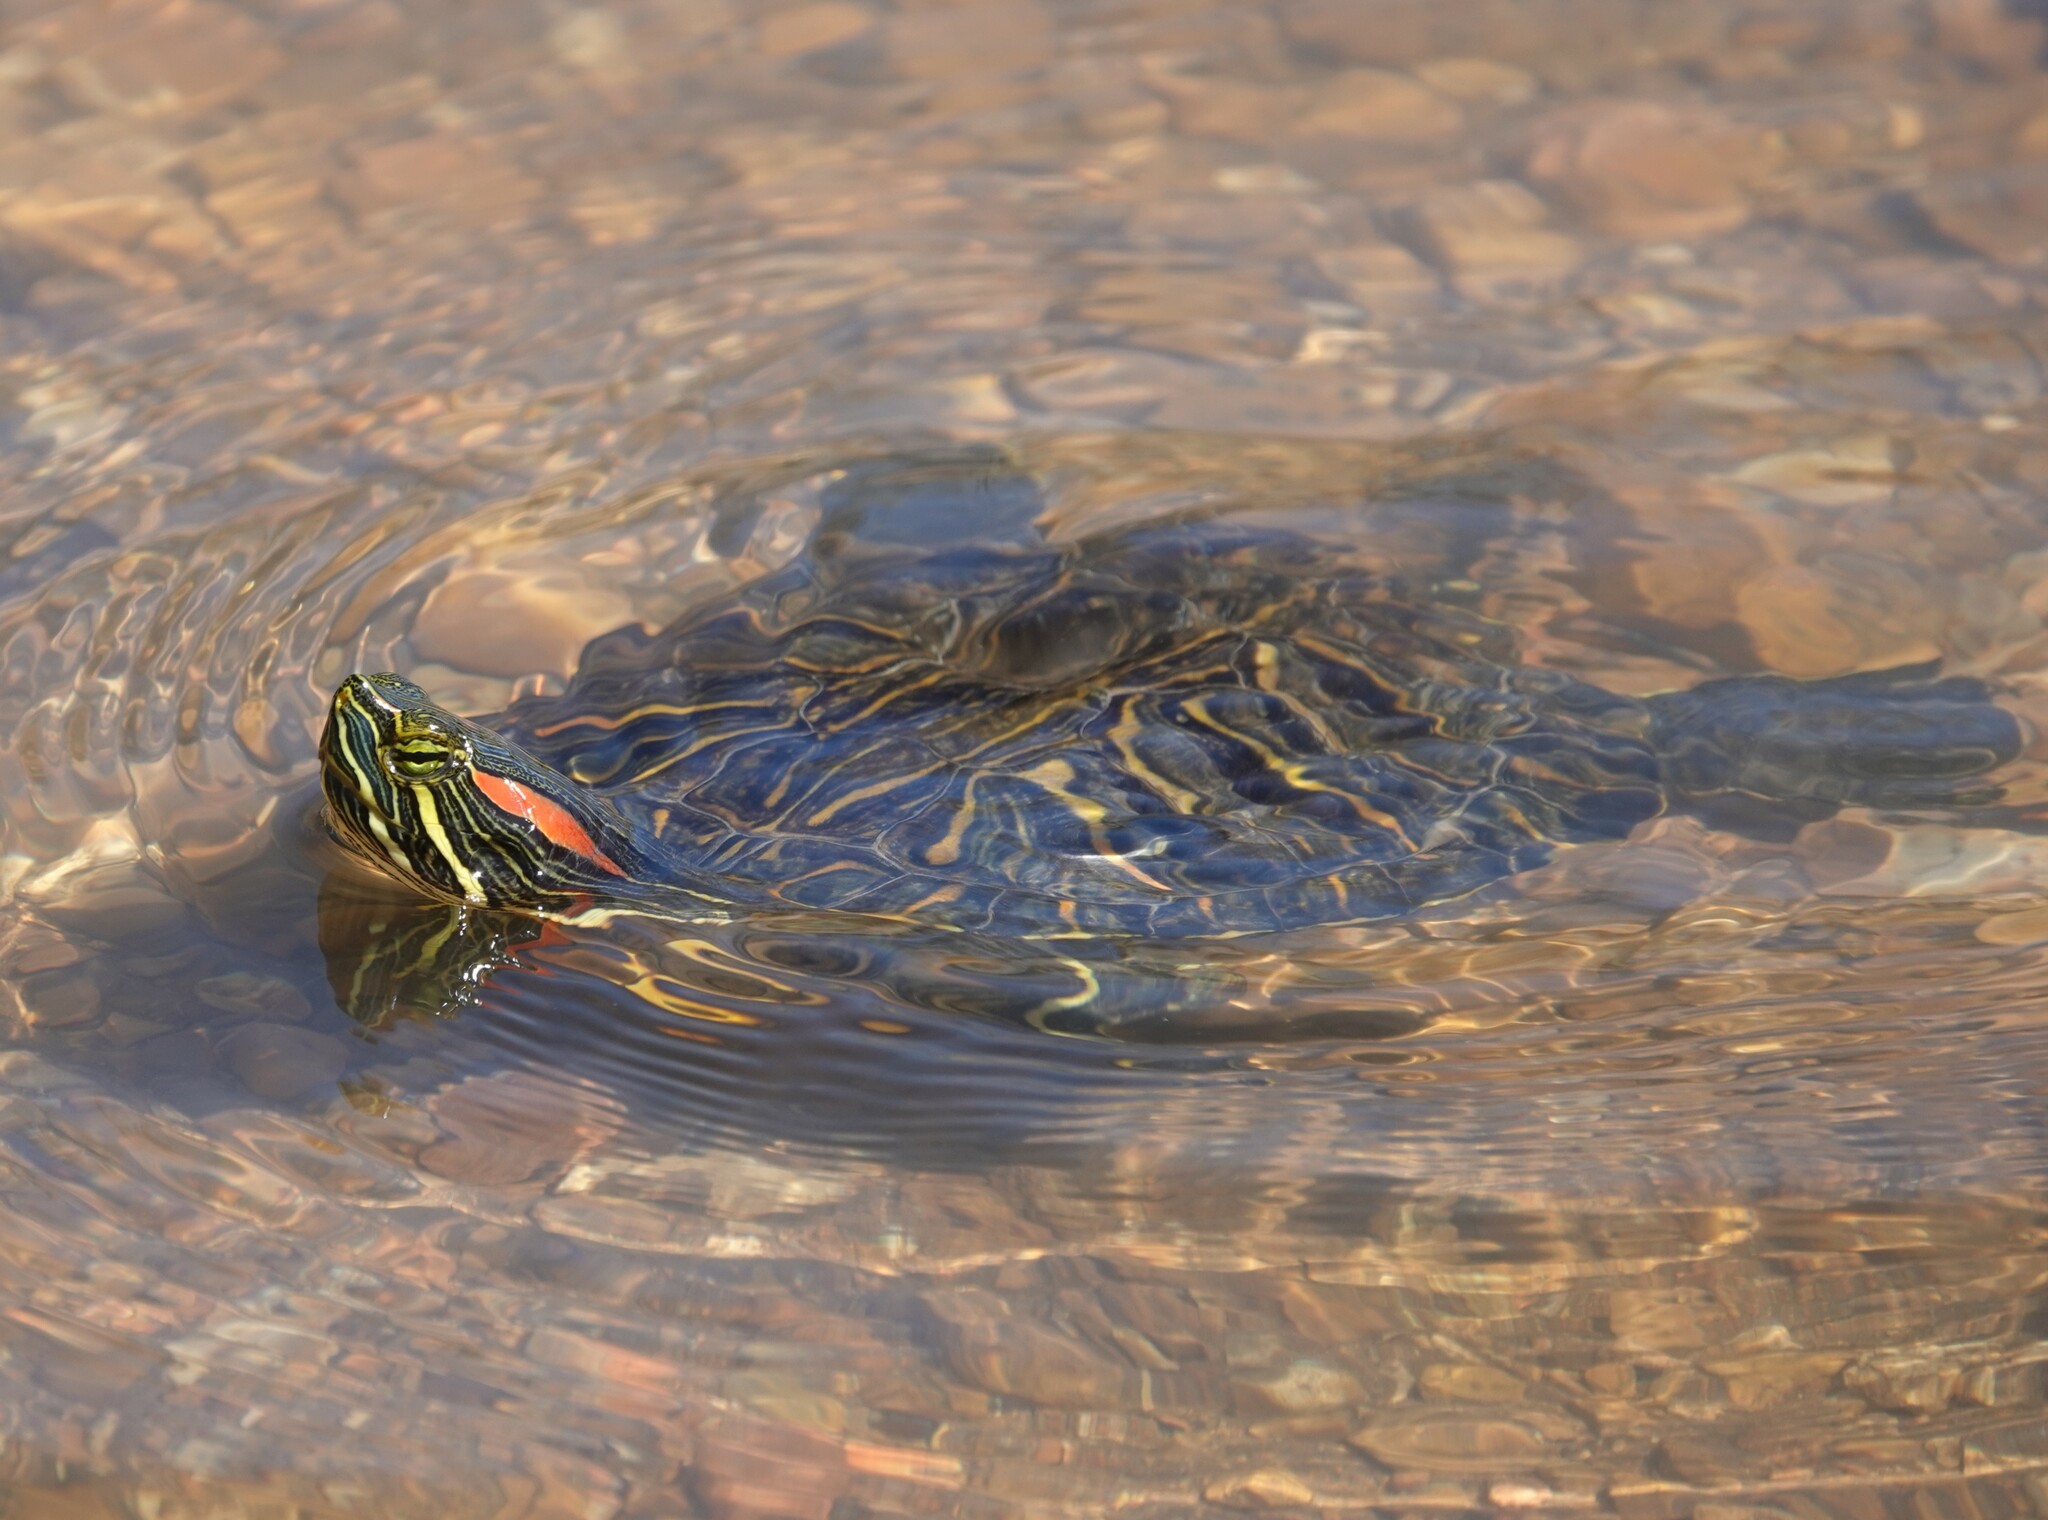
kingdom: Animalia
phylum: Chordata
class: Testudines
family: Emydidae
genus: Trachemys
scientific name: Trachemys scripta
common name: Slider
